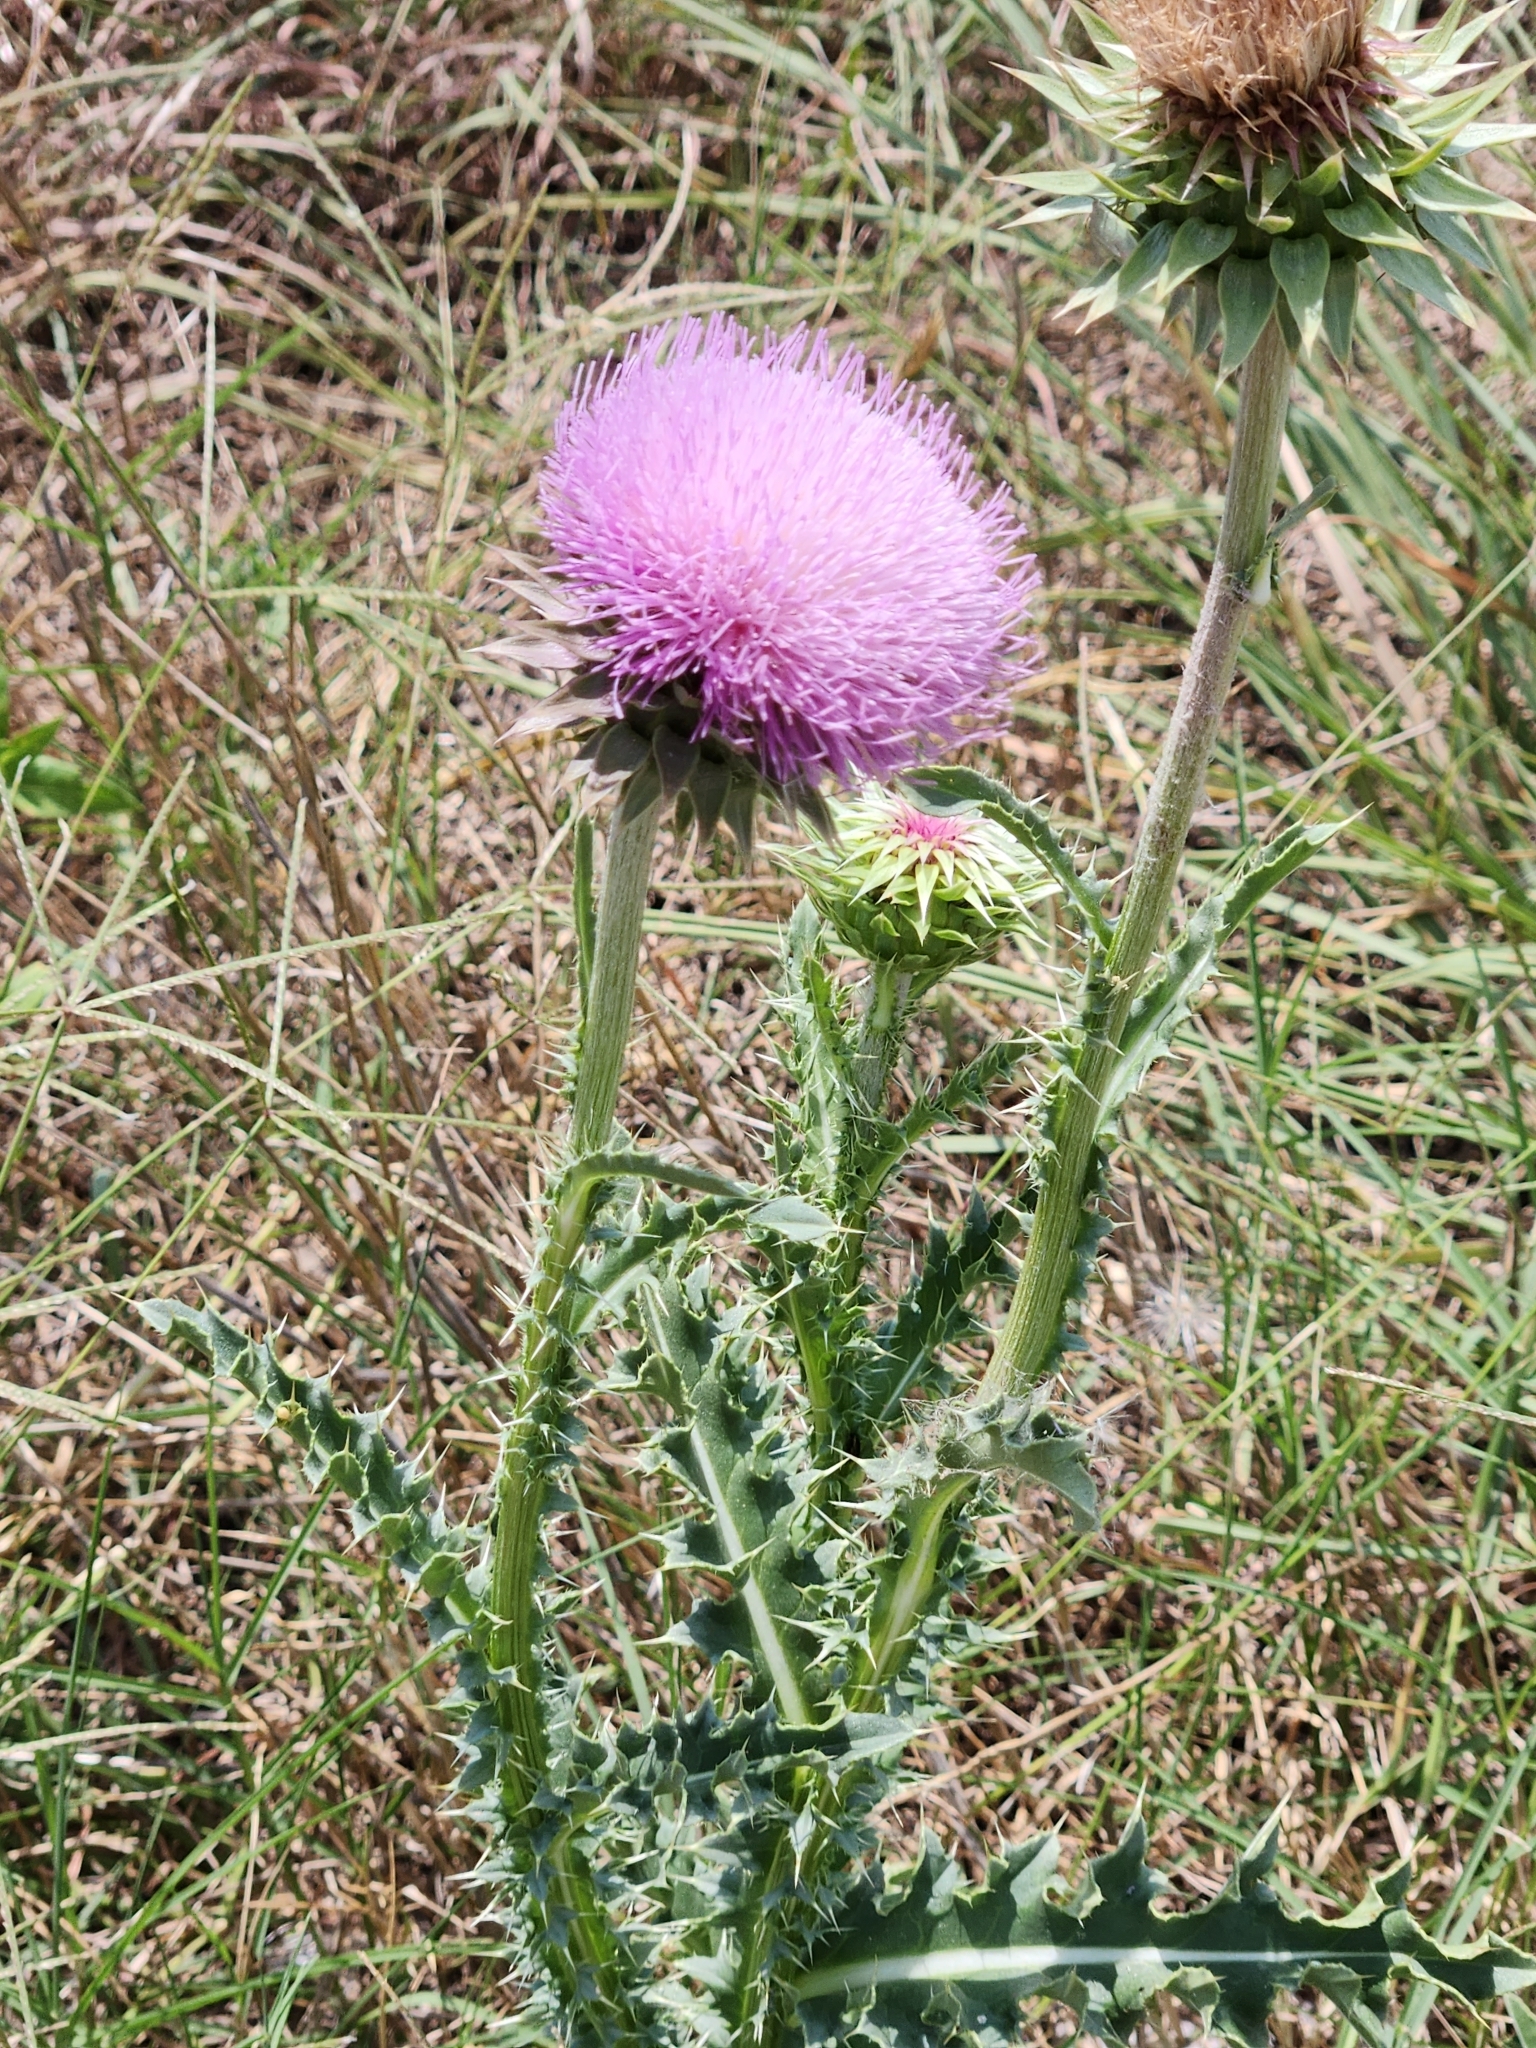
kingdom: Plantae
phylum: Tracheophyta
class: Magnoliopsida
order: Asterales
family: Asteraceae
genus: Carduus
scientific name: Carduus nutans
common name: Musk thistle
